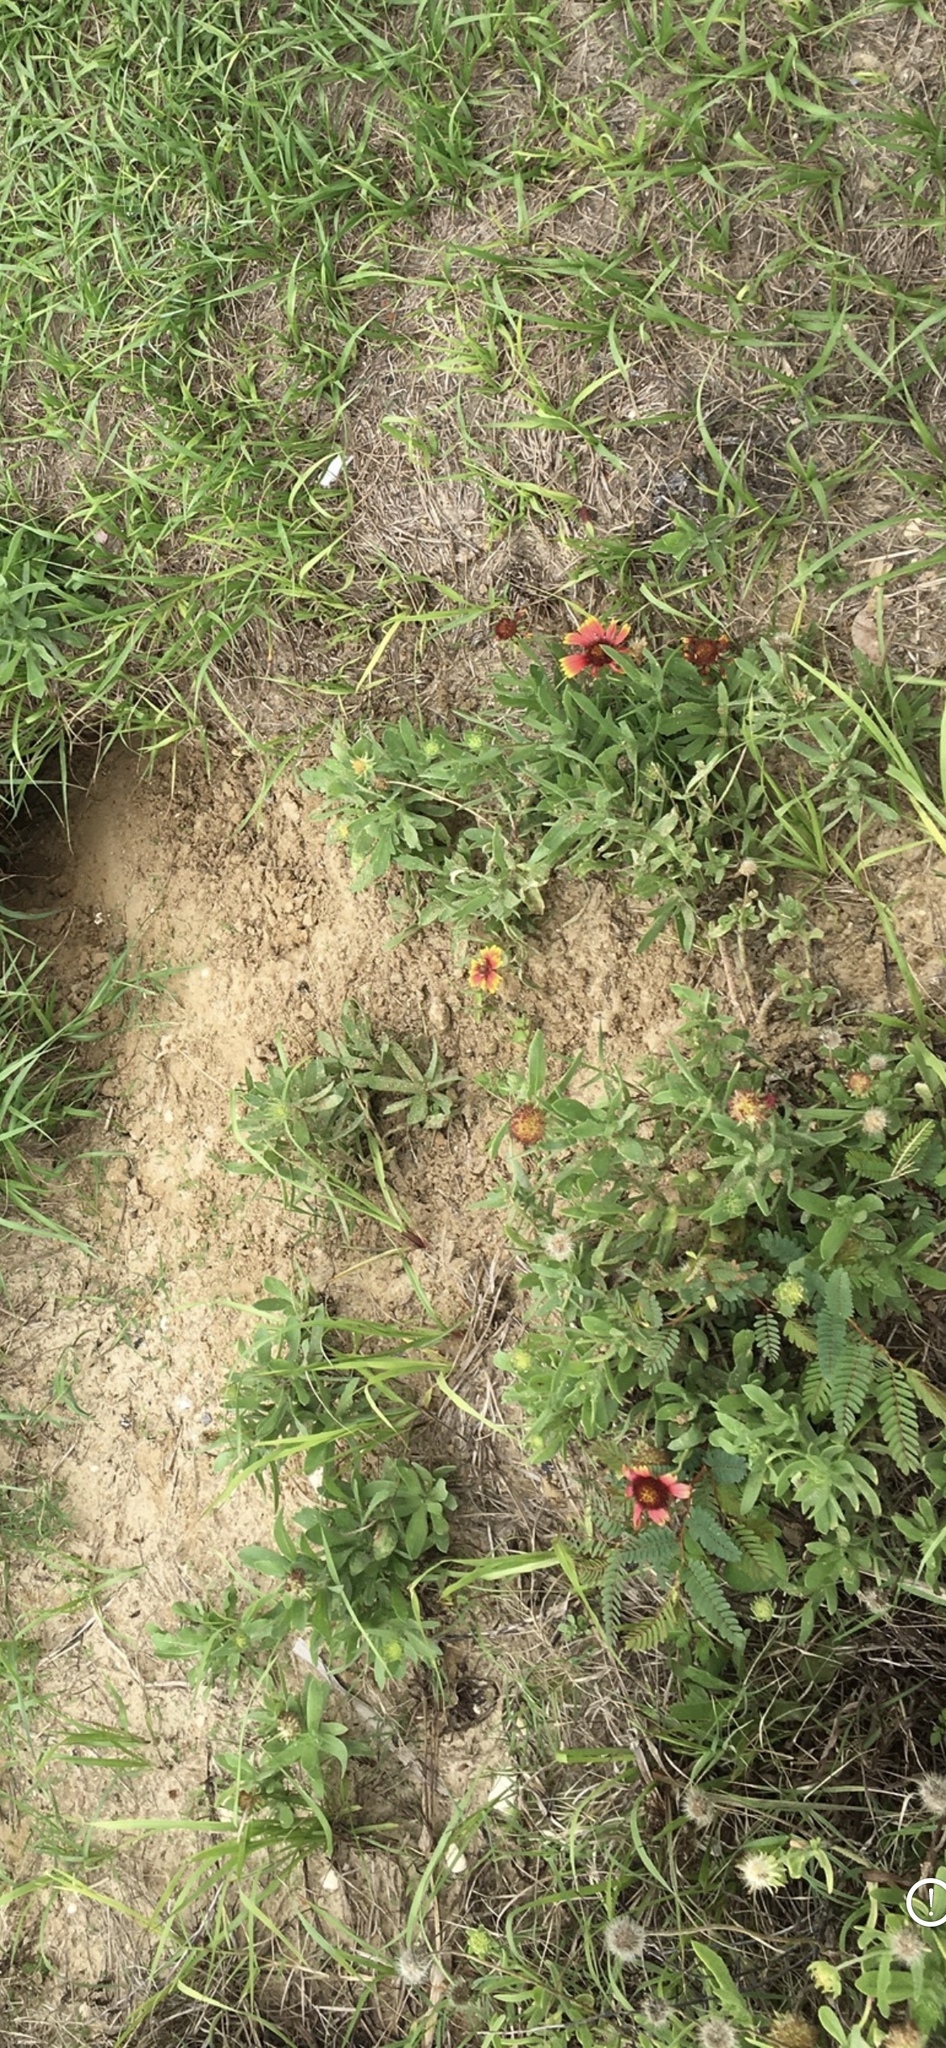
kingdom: Plantae
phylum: Tracheophyta
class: Magnoliopsida
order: Asterales
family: Asteraceae
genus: Gaillardia
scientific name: Gaillardia pulchella
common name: Firewheel
